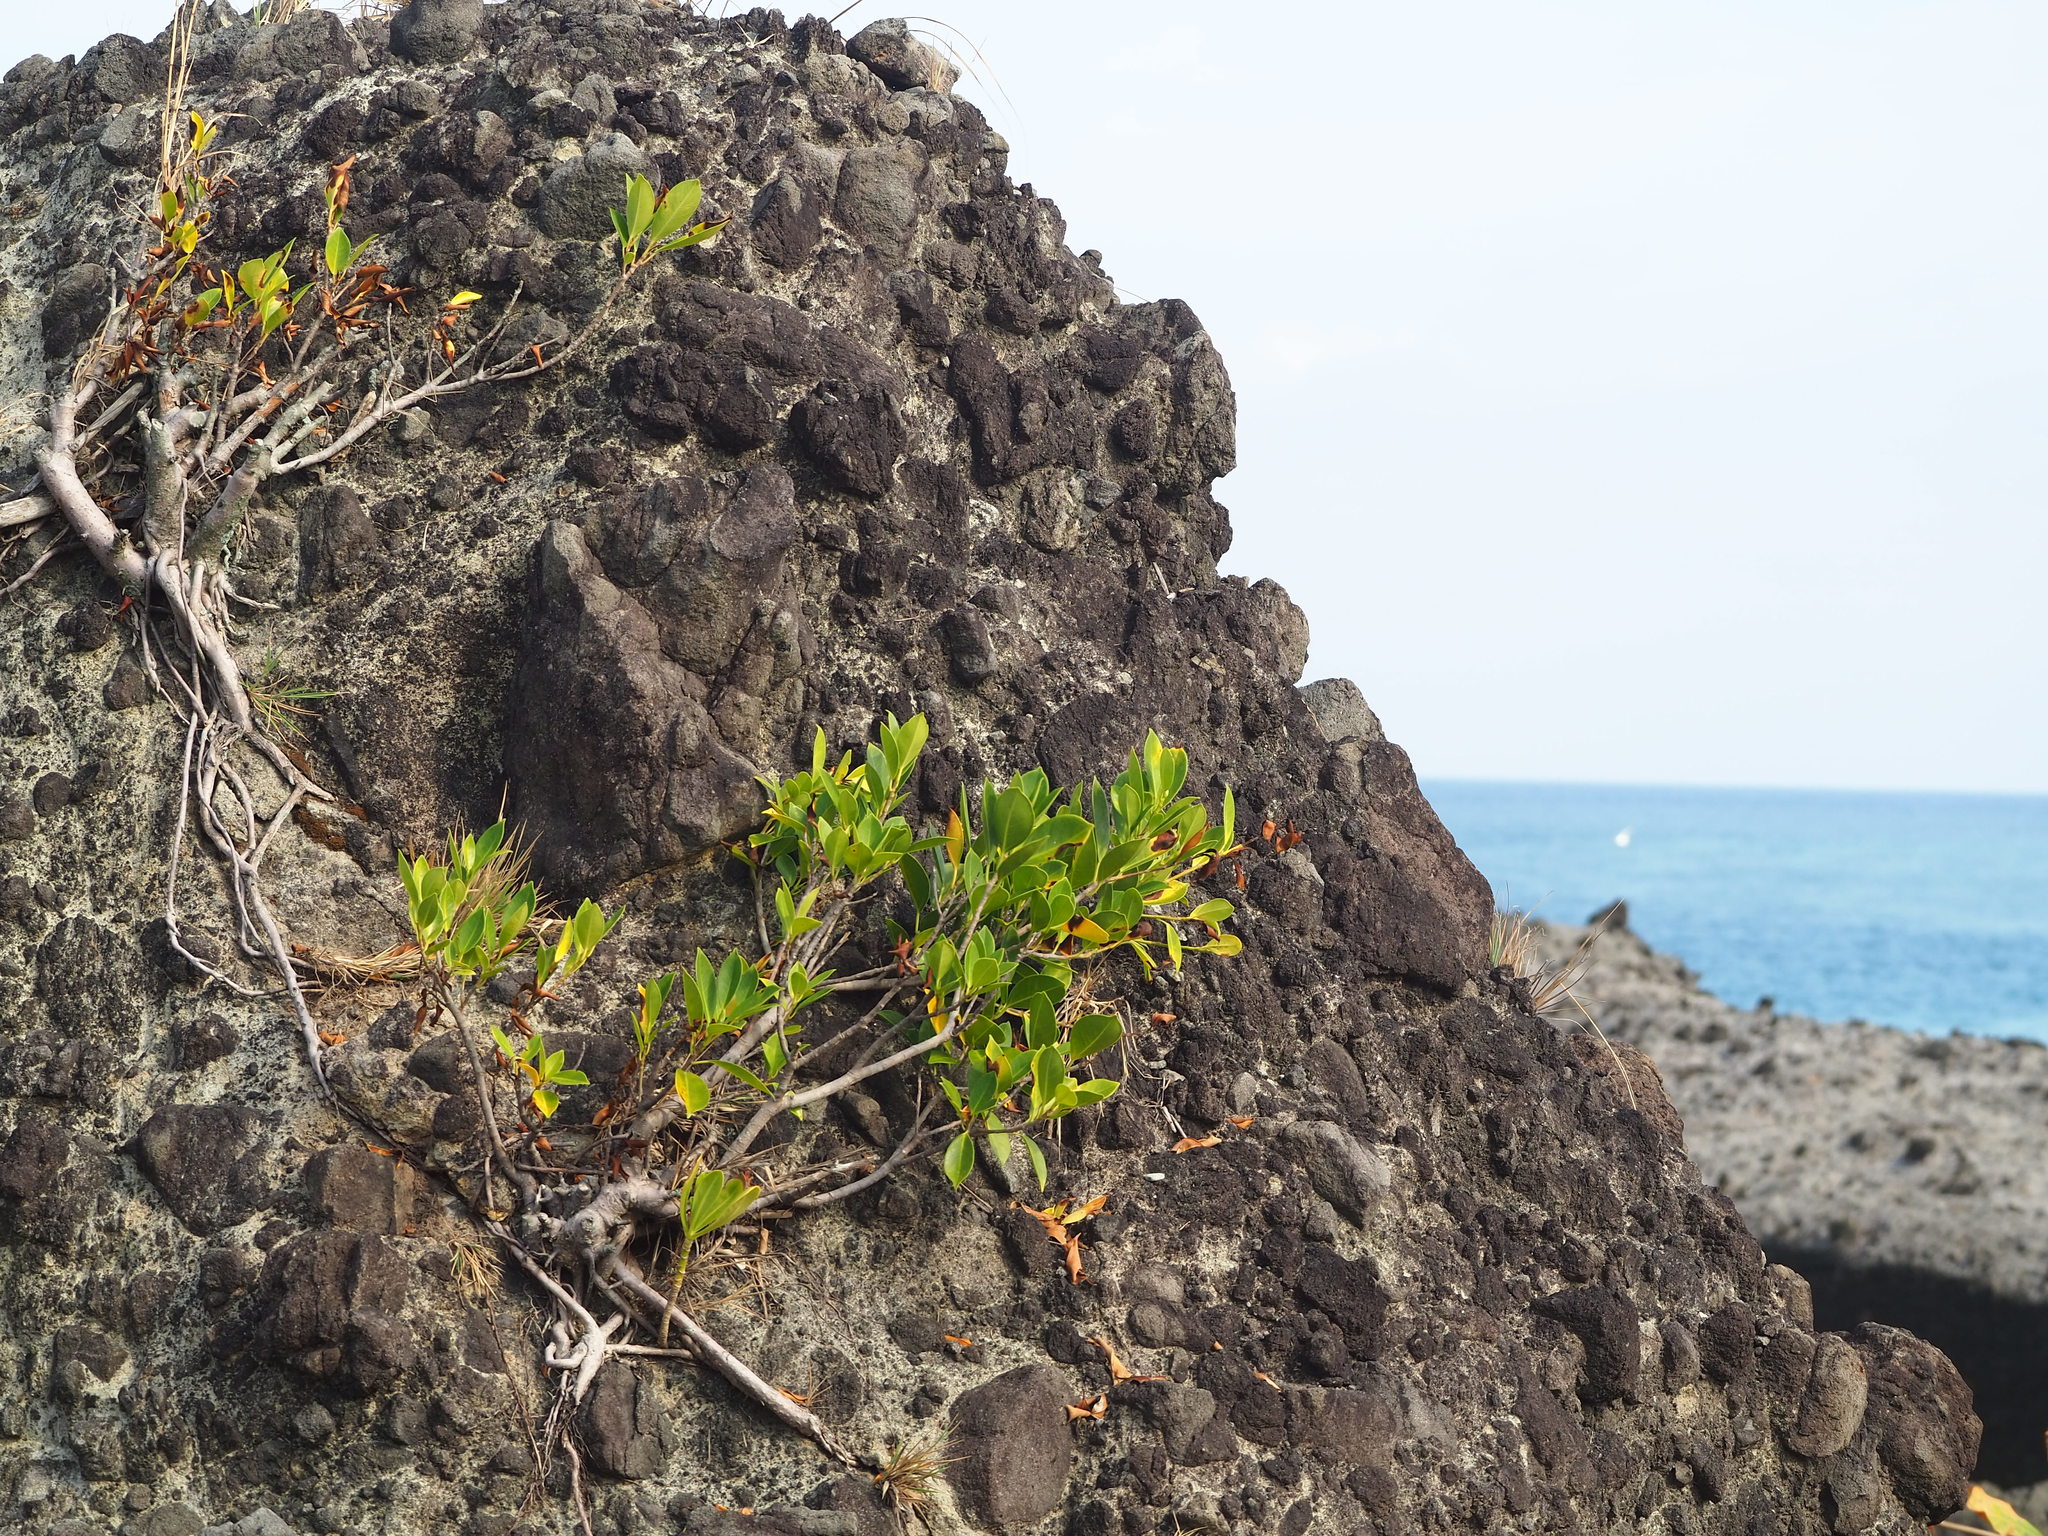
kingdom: Plantae
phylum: Tracheophyta
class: Magnoliopsida
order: Rosales
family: Moraceae
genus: Ficus
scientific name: Ficus microcarpa
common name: Chinese banyan
